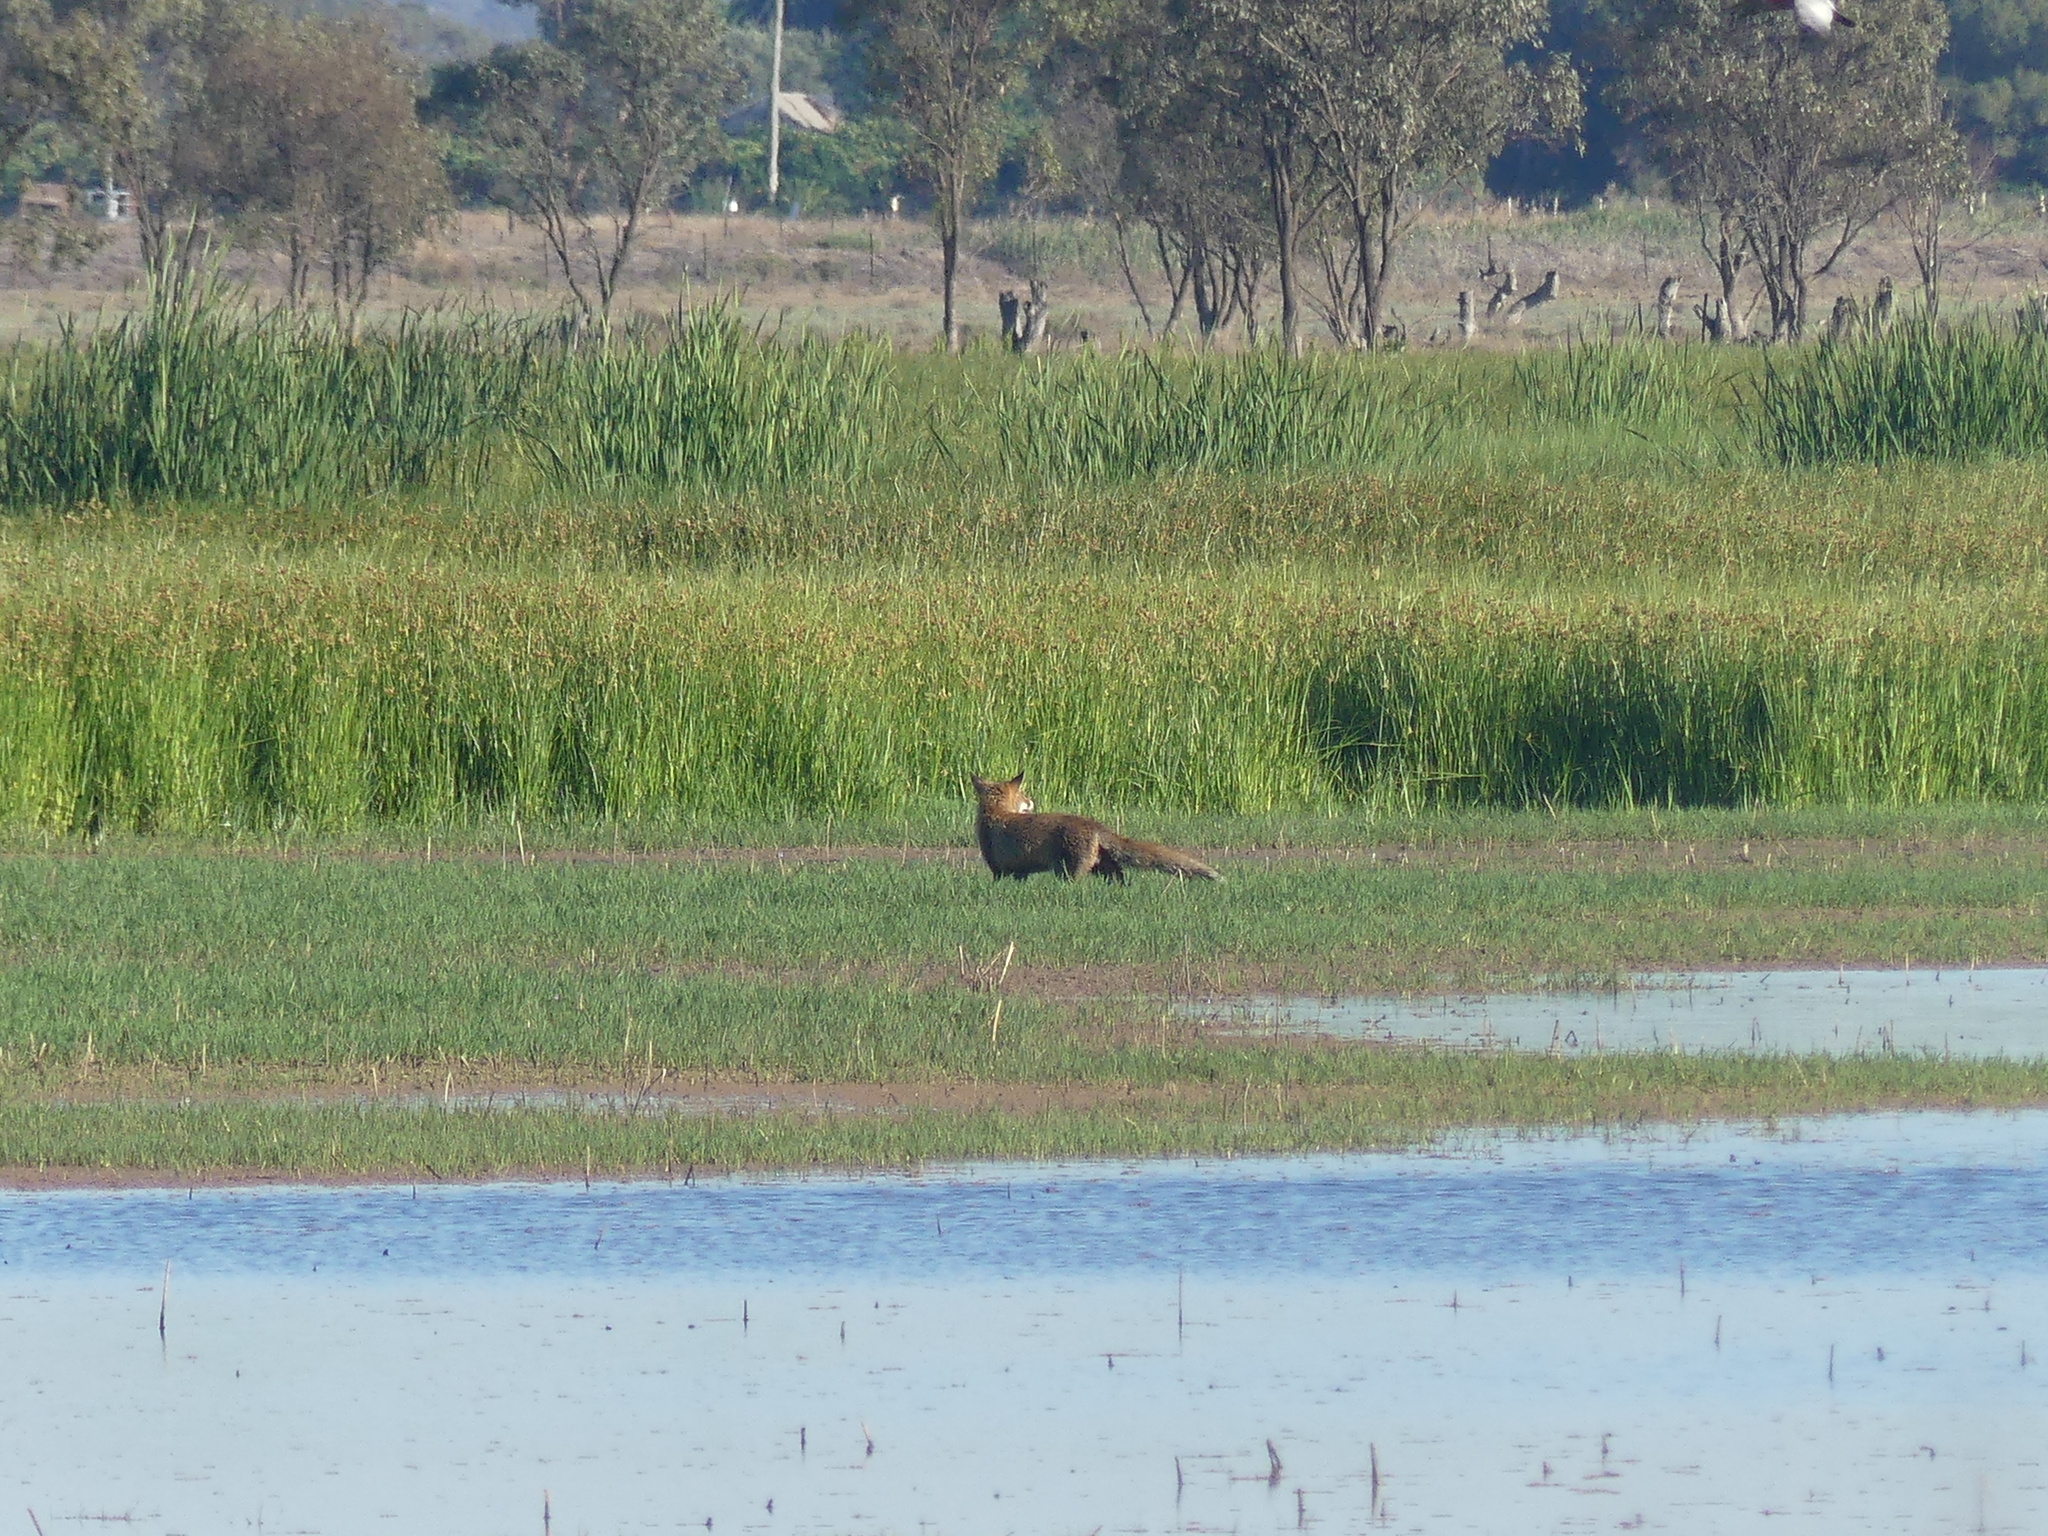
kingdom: Animalia
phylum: Chordata
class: Mammalia
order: Carnivora
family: Canidae
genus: Vulpes
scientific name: Vulpes vulpes
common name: Red fox
